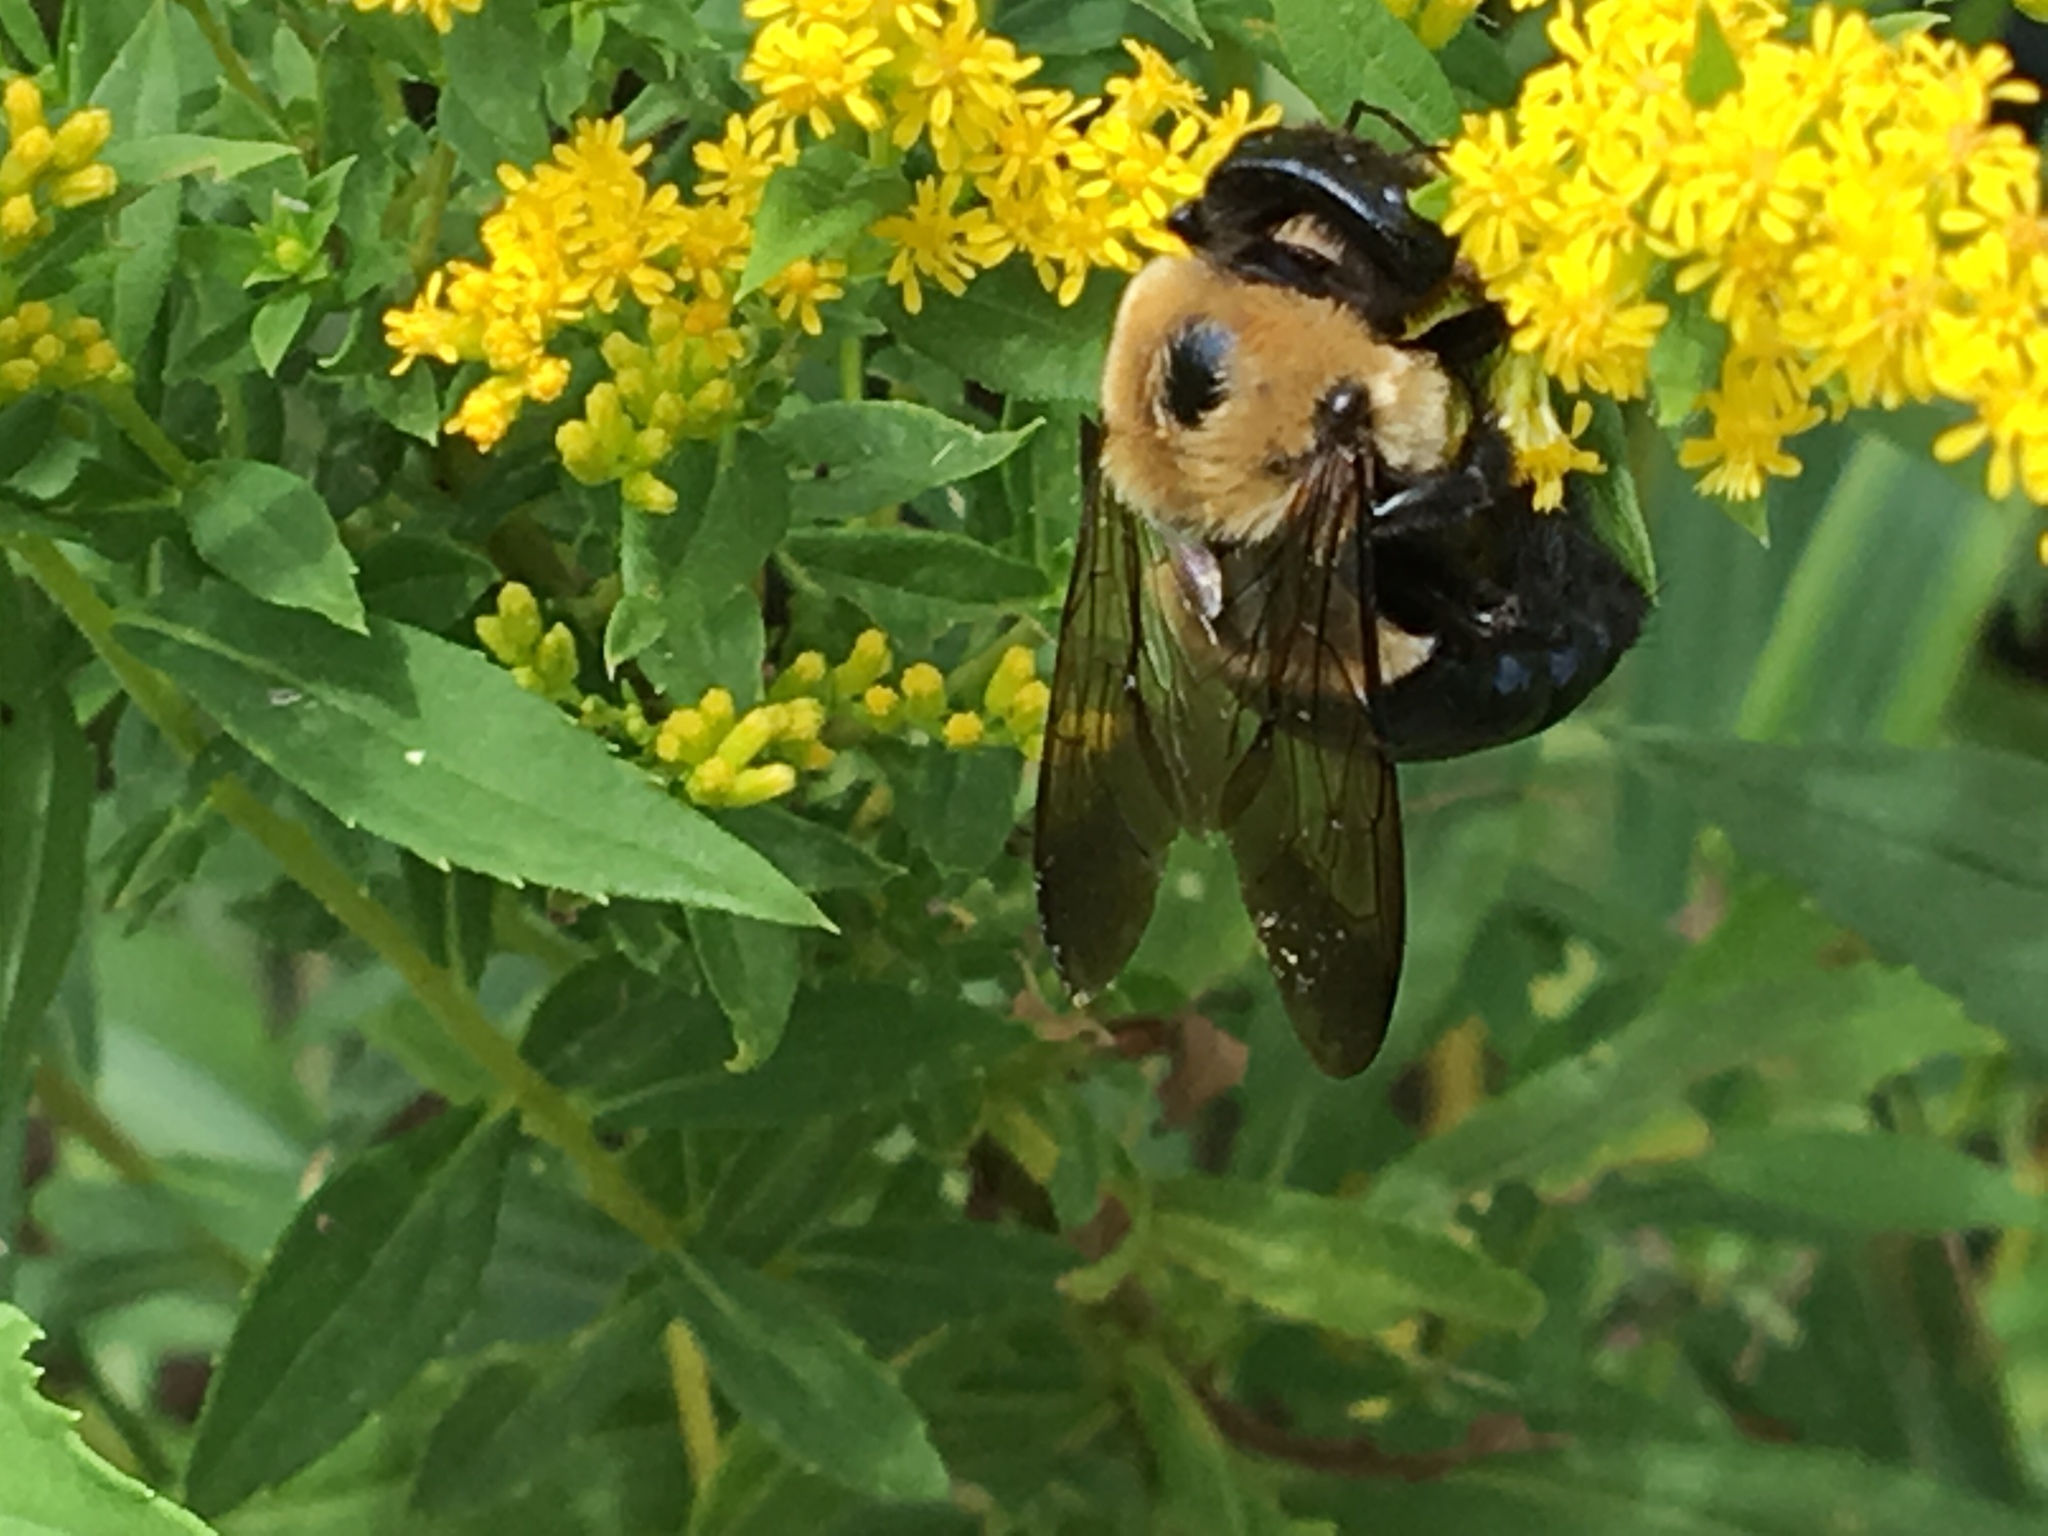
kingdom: Animalia
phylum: Arthropoda
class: Insecta
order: Hymenoptera
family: Apidae
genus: Xylocopa
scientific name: Xylocopa virginica
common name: Carpenter bee
